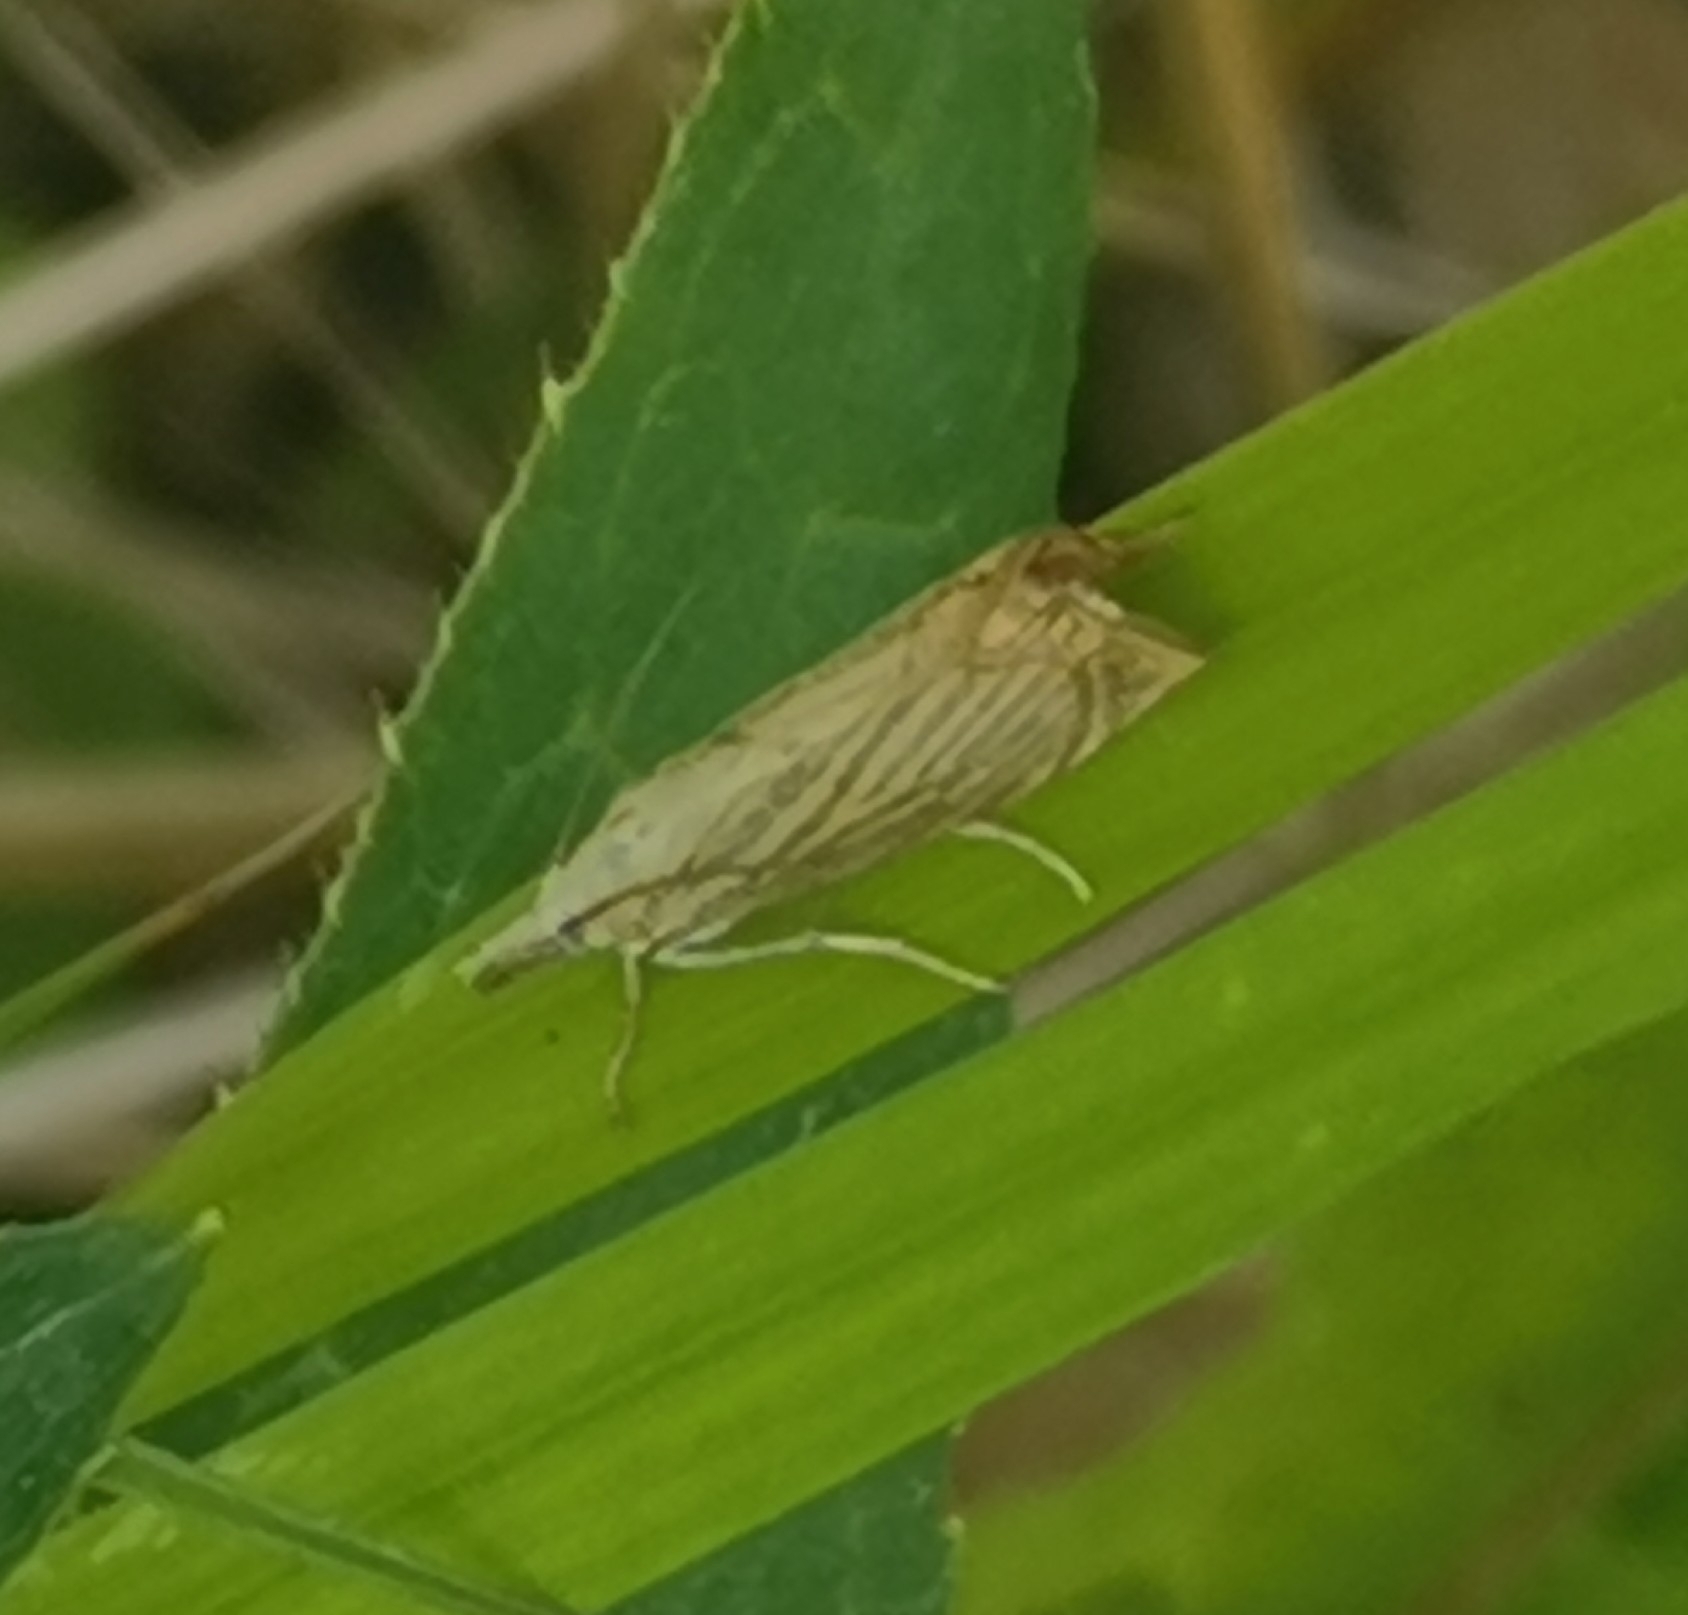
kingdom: Animalia
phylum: Arthropoda
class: Insecta
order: Lepidoptera
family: Crambidae
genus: Chrysoteuchia
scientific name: Chrysoteuchia culmella
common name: Garden grass-veneer
